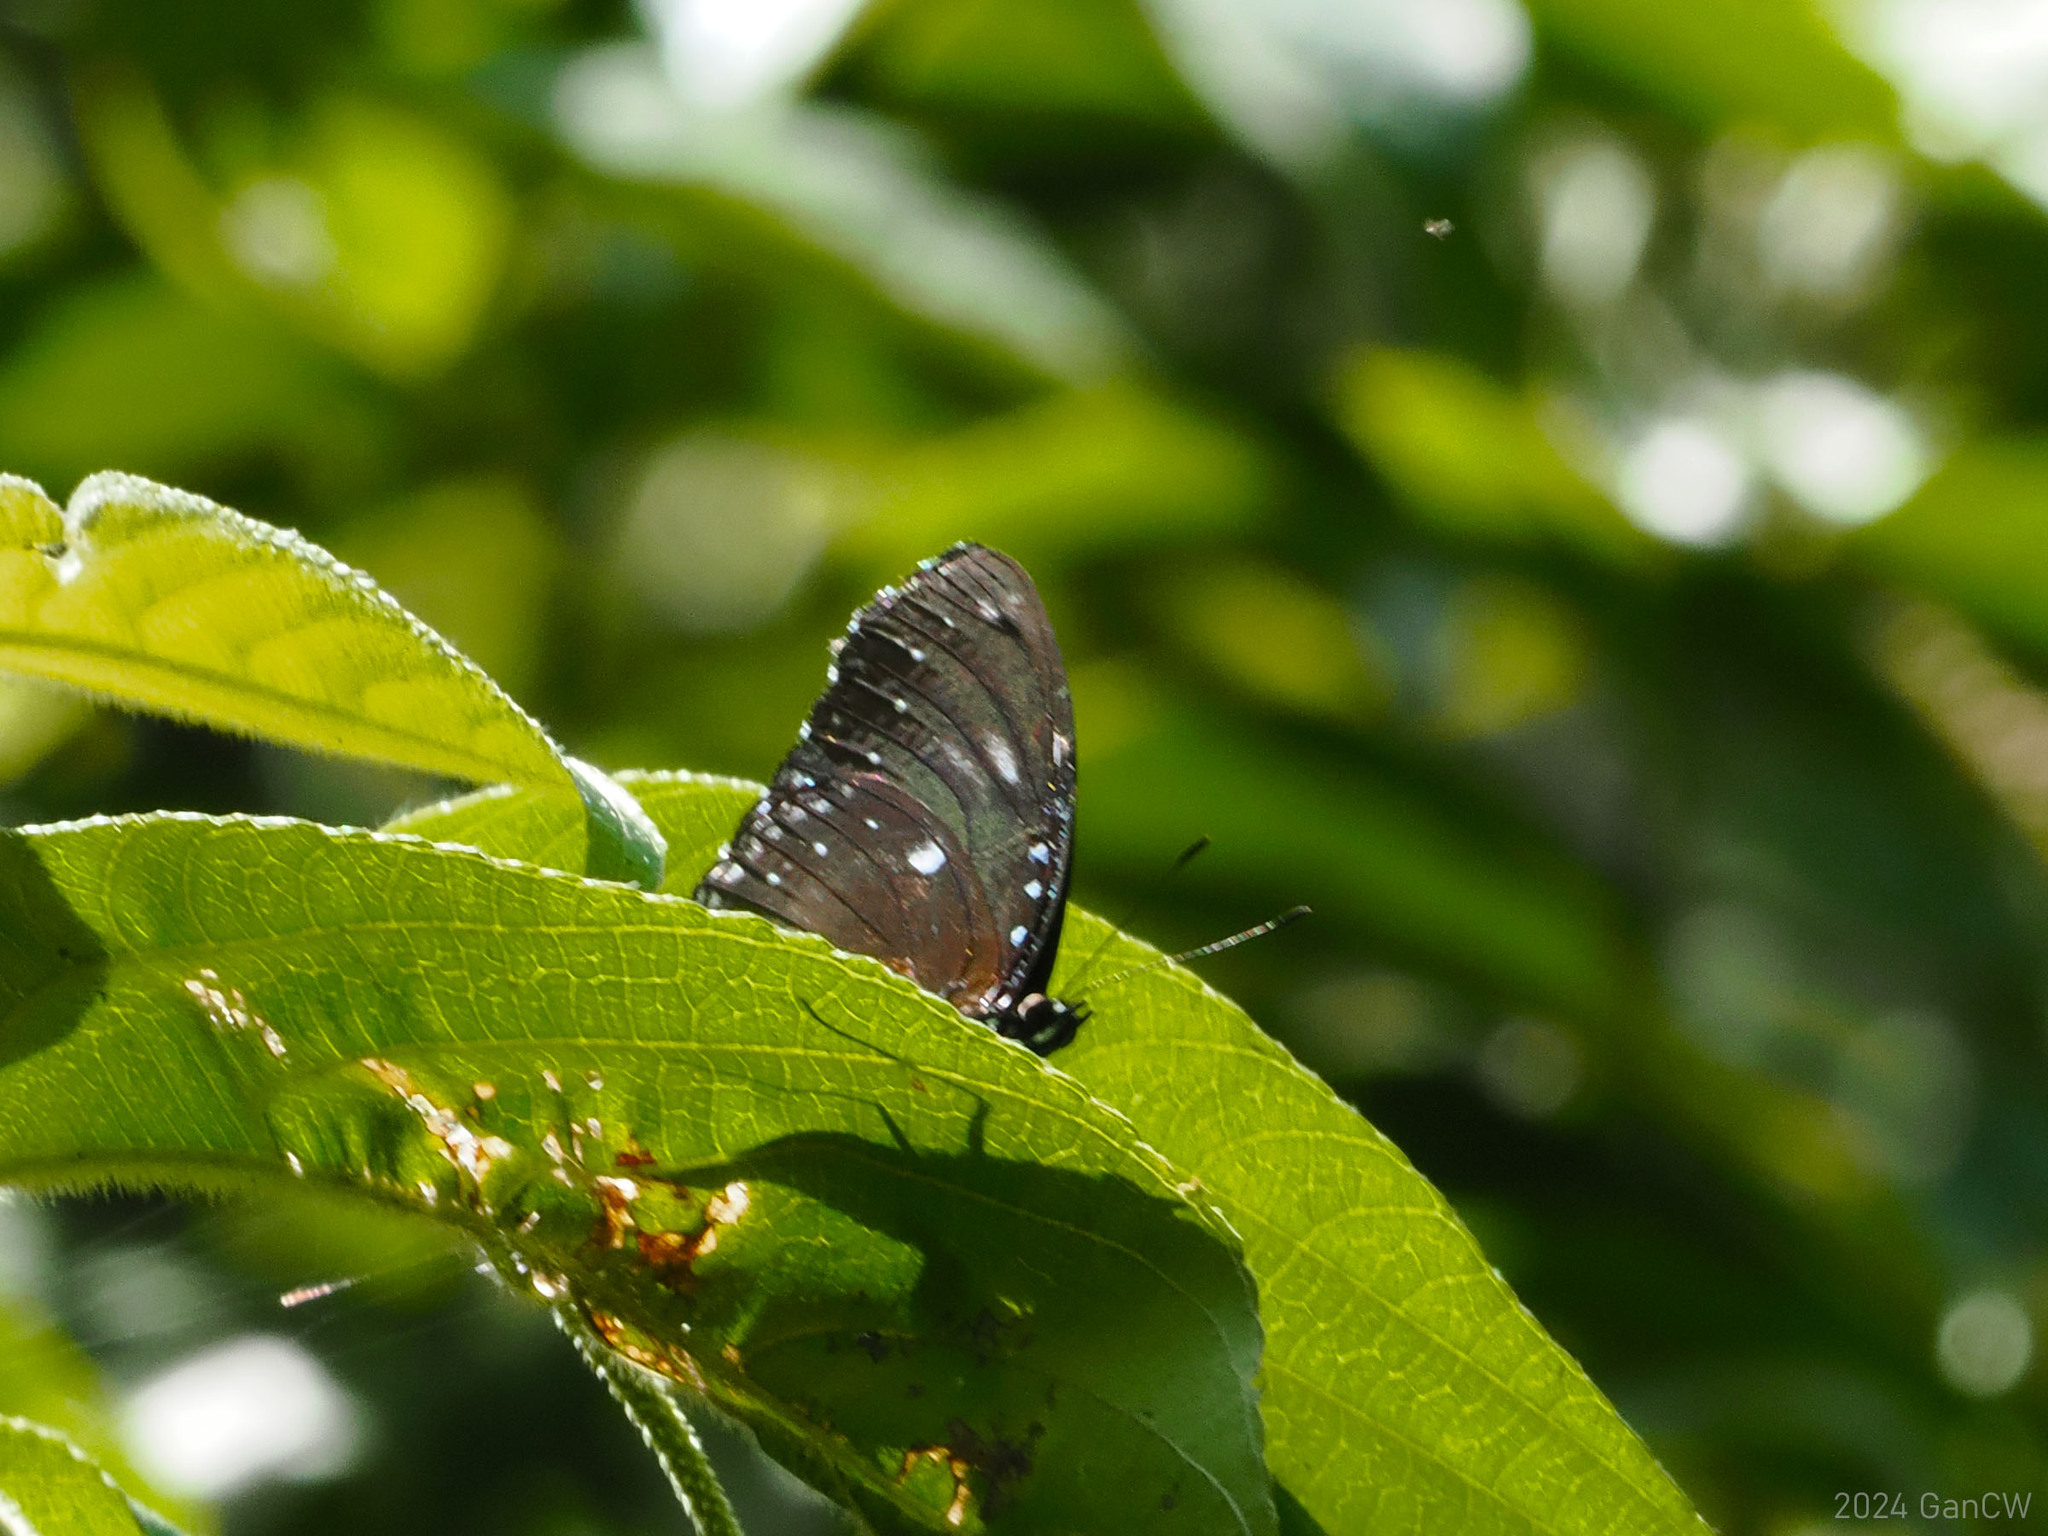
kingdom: Animalia
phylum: Arthropoda
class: Insecta
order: Lepidoptera
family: Nymphalidae
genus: Hypolimnas
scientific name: Hypolimnas anomala
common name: Malayan eggfly
